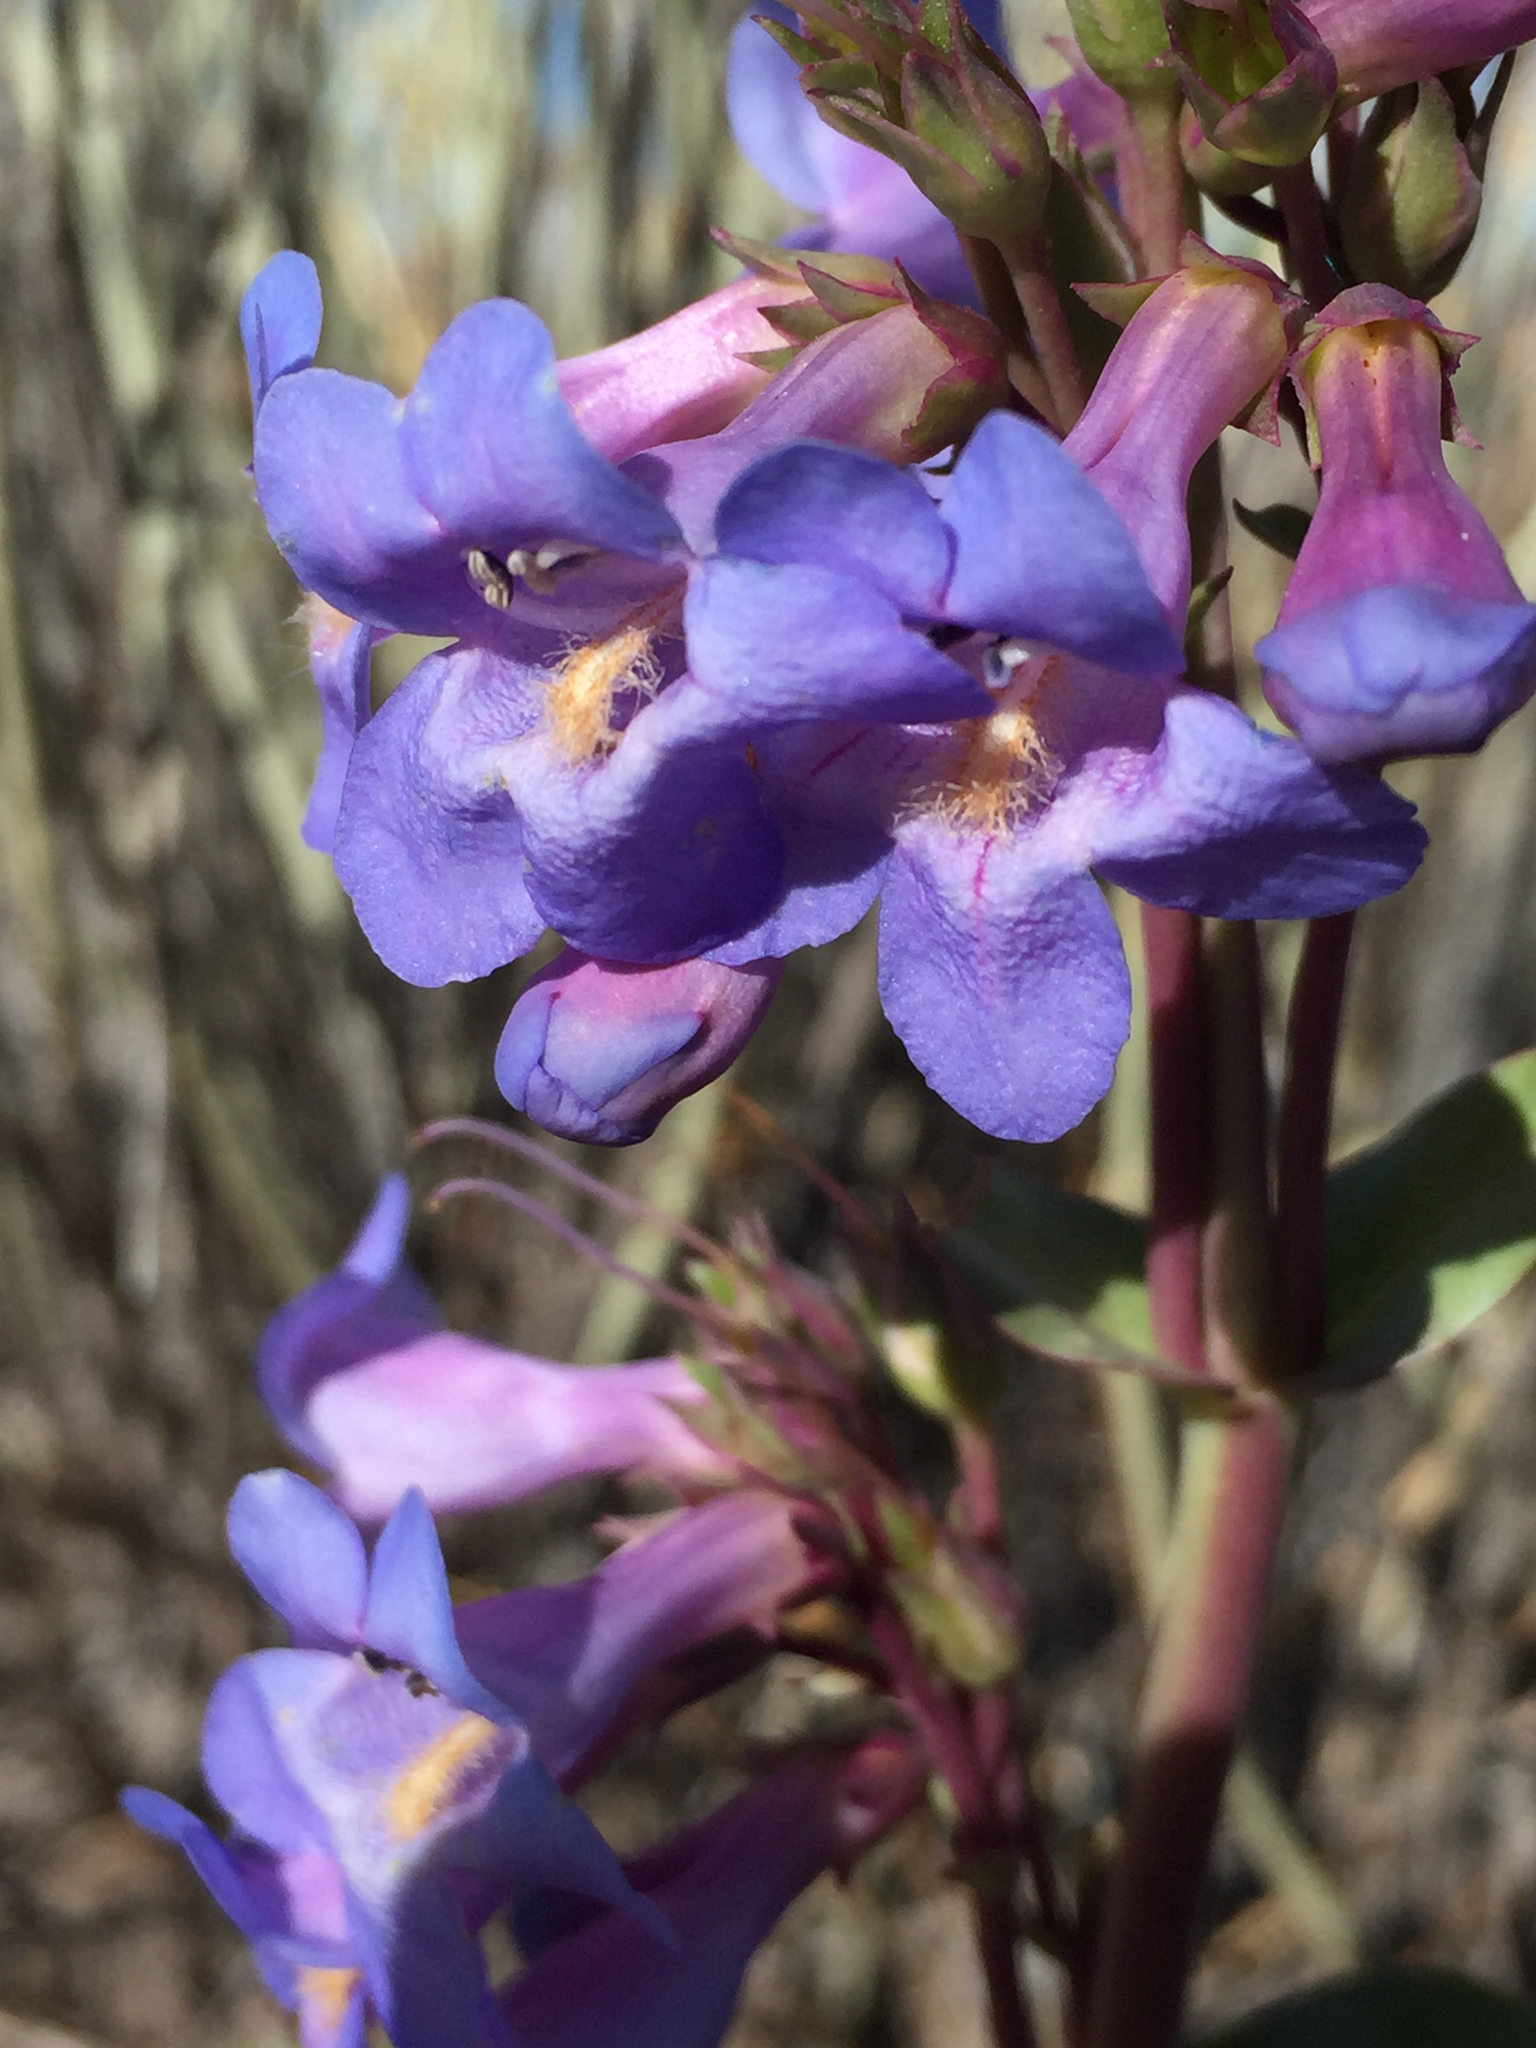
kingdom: Plantae
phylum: Tracheophyta
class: Magnoliopsida
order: Lamiales
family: Plantaginaceae
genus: Penstemon
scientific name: Penstemon pachyphyllus
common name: Thick-leaf penstemon
